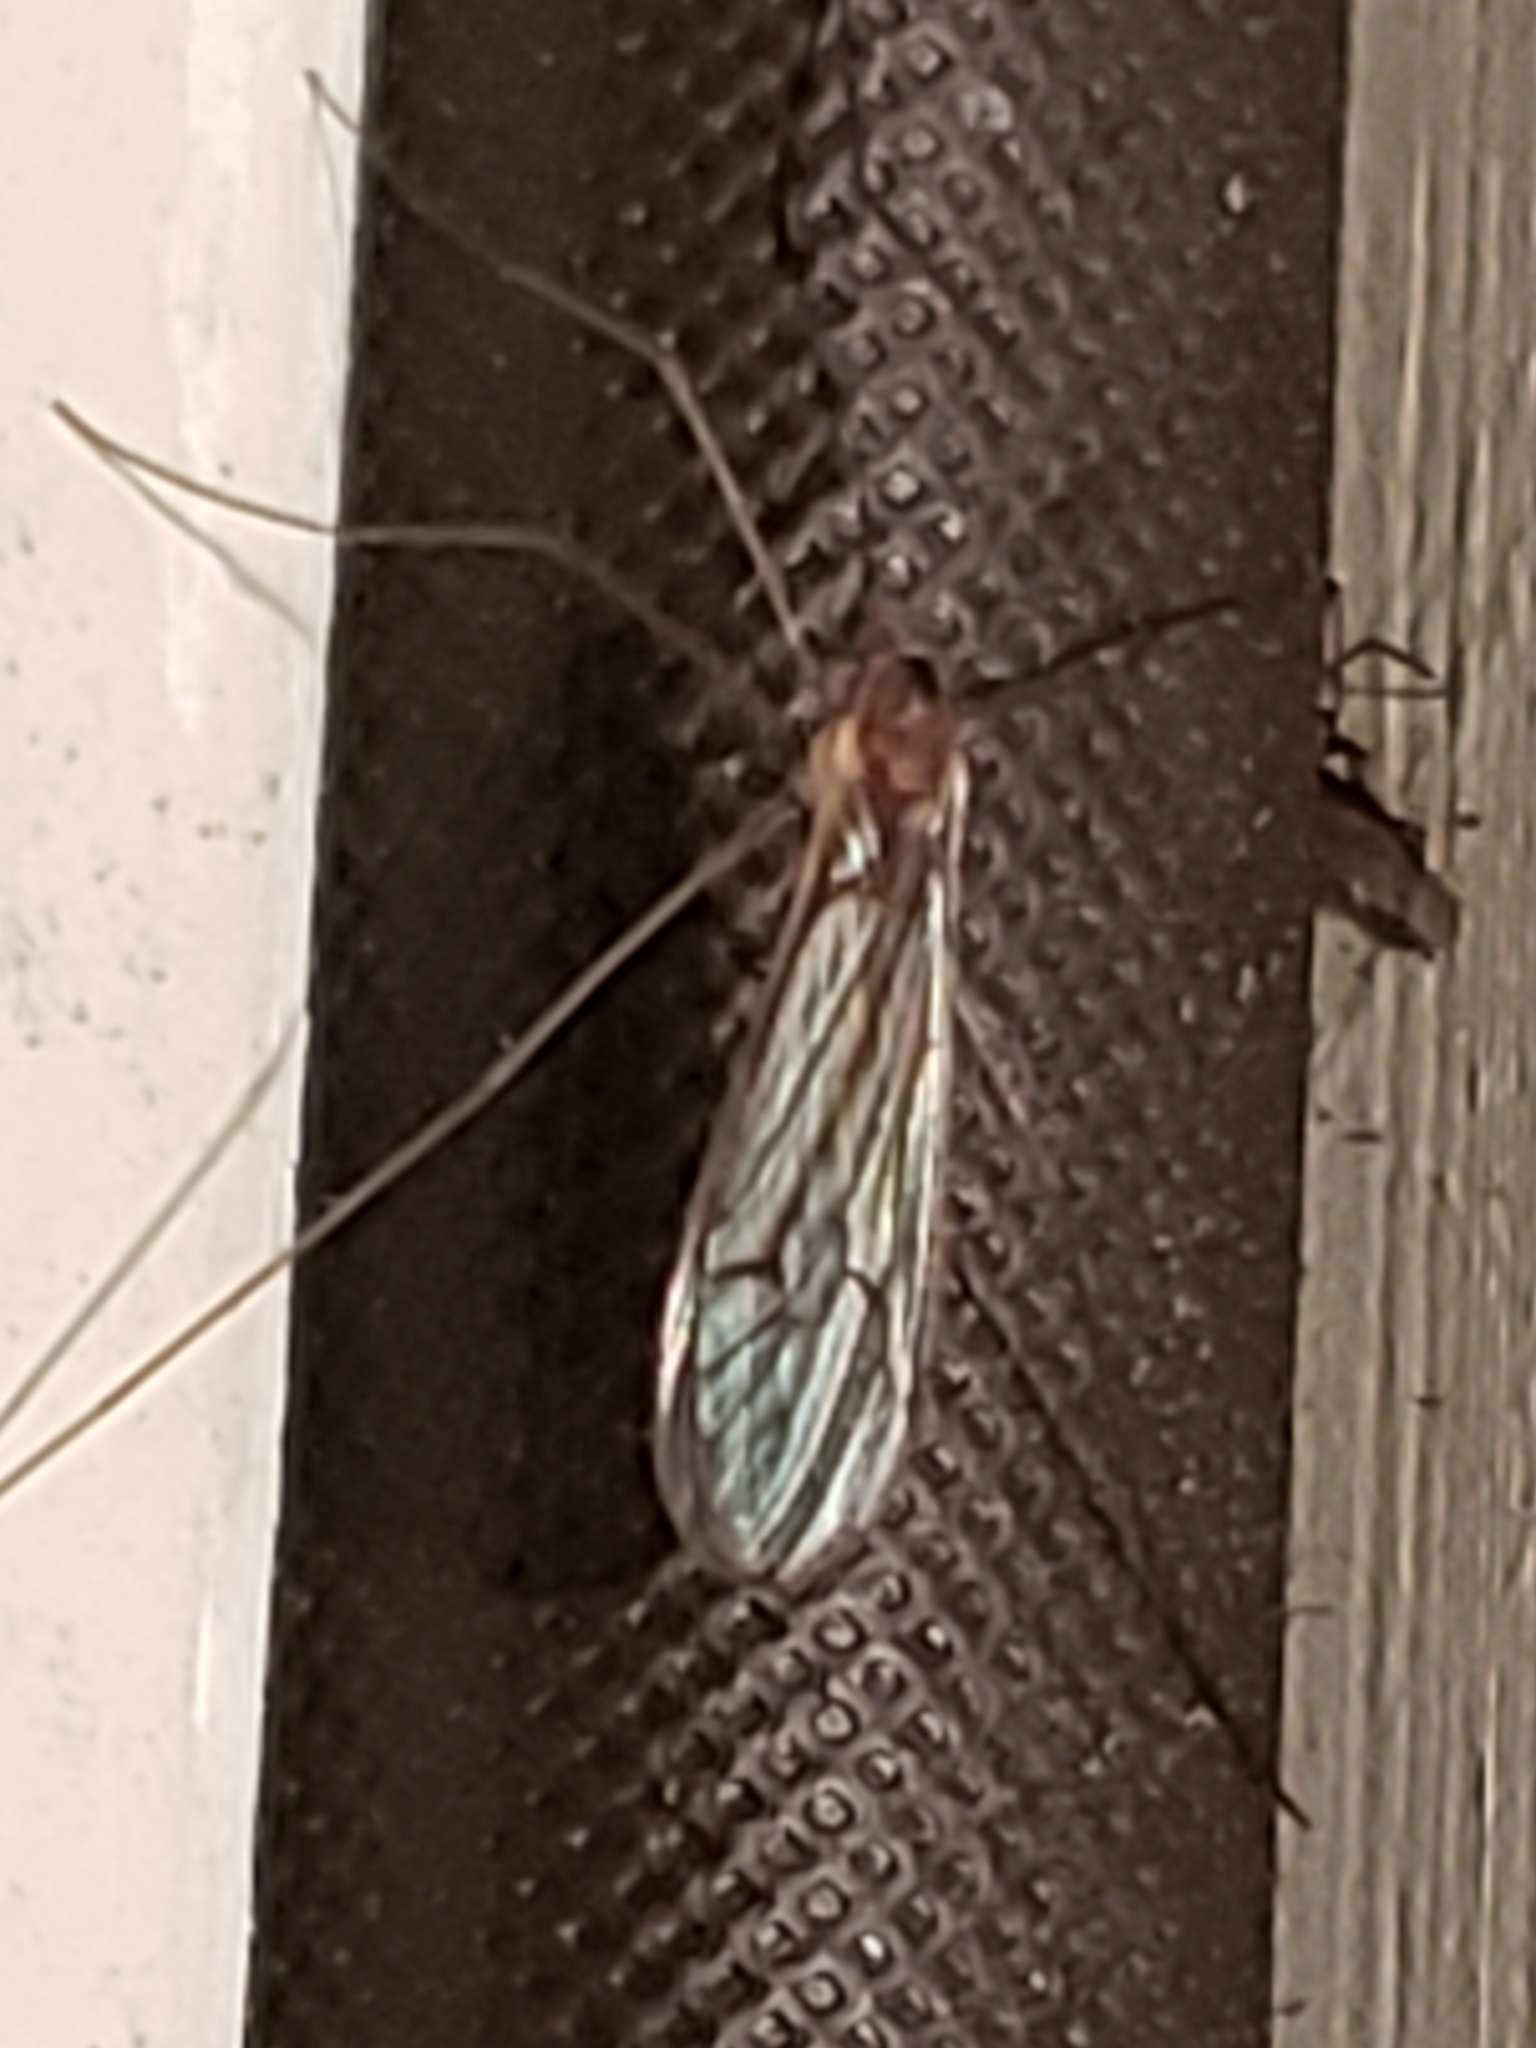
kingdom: Animalia
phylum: Arthropoda
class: Insecta
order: Diptera
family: Trichoceridae
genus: Trichocera
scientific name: Trichocera annulata
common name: Winter gnat
